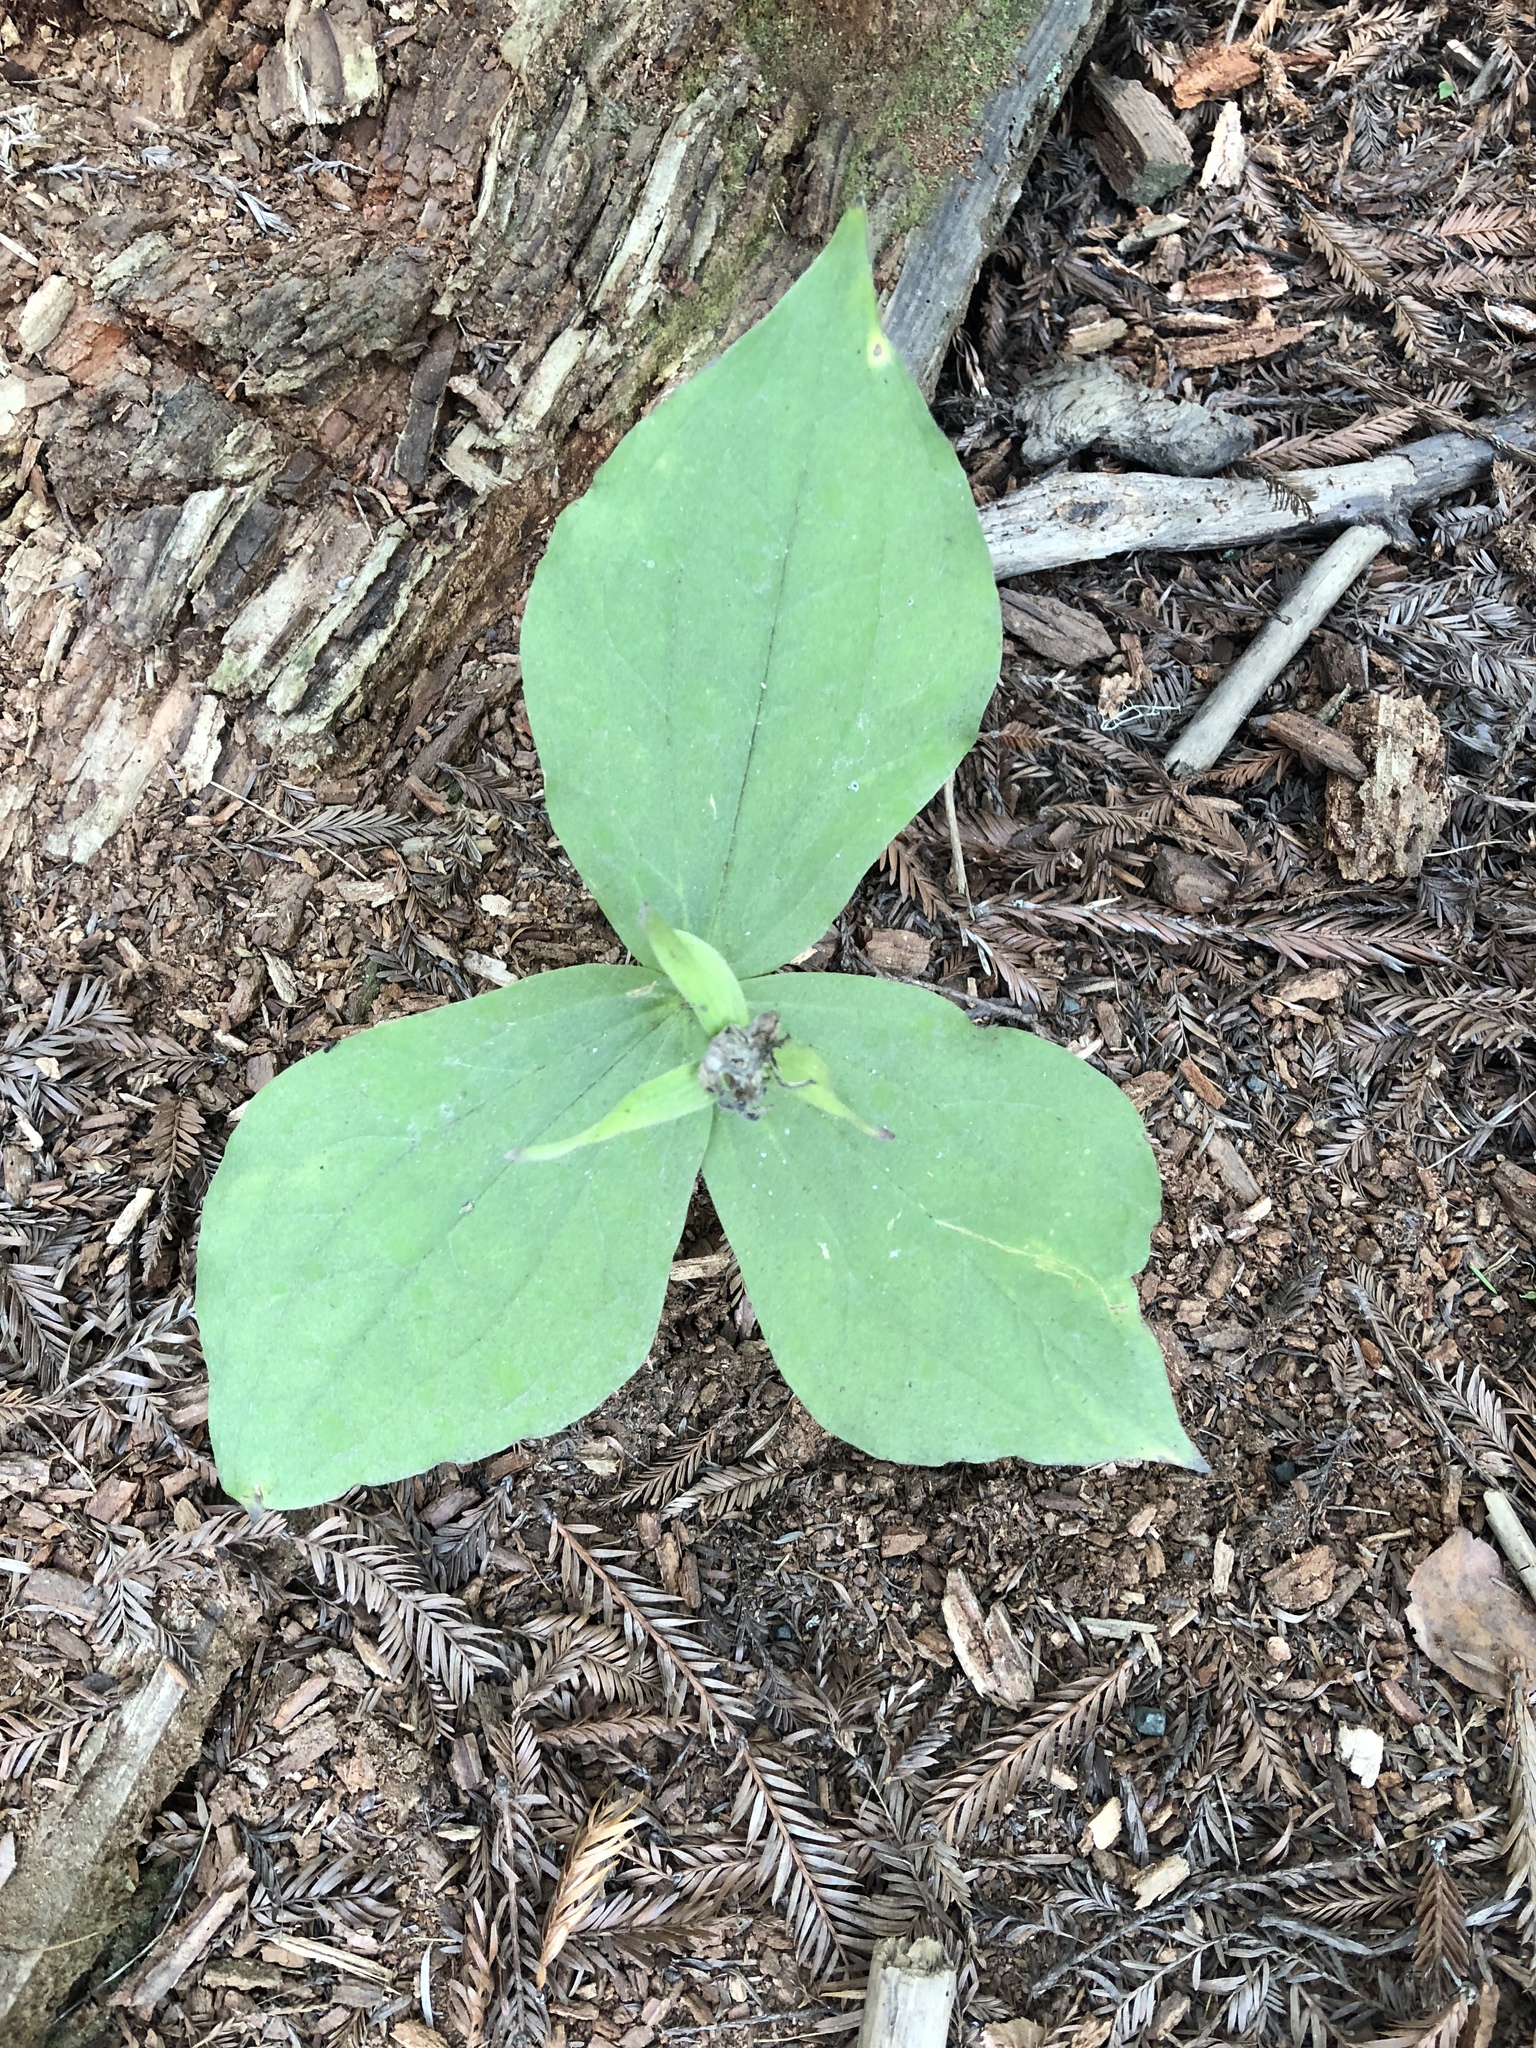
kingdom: Plantae
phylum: Tracheophyta
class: Liliopsida
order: Liliales
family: Melanthiaceae
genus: Trillium
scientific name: Trillium ovatum
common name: Pacific trillium
